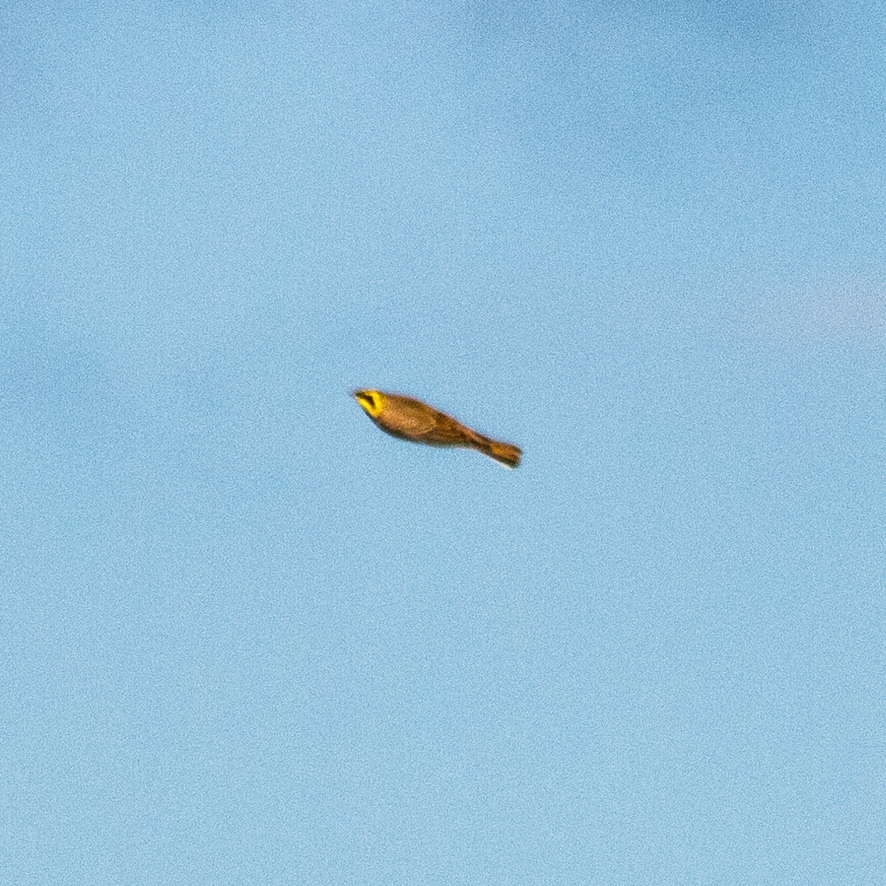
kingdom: Animalia
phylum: Chordata
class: Aves
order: Passeriformes
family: Alaudidae
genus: Eremophila
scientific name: Eremophila alpestris
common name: Horned lark
